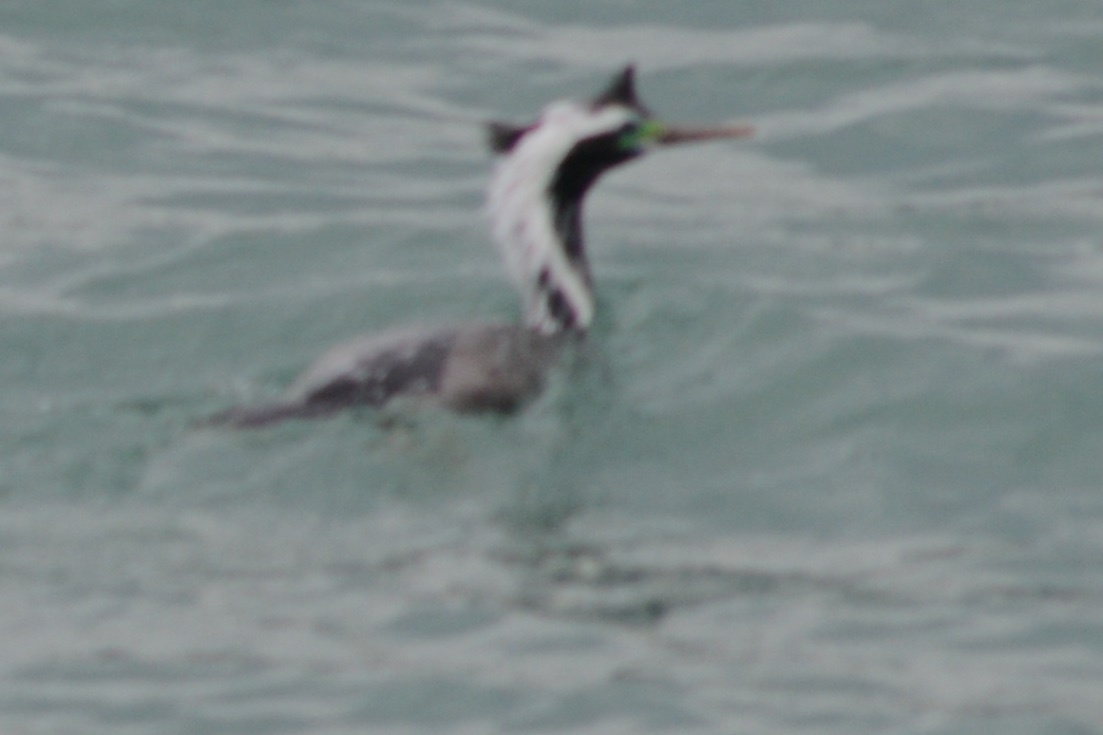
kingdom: Animalia
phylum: Chordata
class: Aves
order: Suliformes
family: Phalacrocoracidae
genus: Phalacrocorax
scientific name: Phalacrocorax punctatus
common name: Spotted shag
